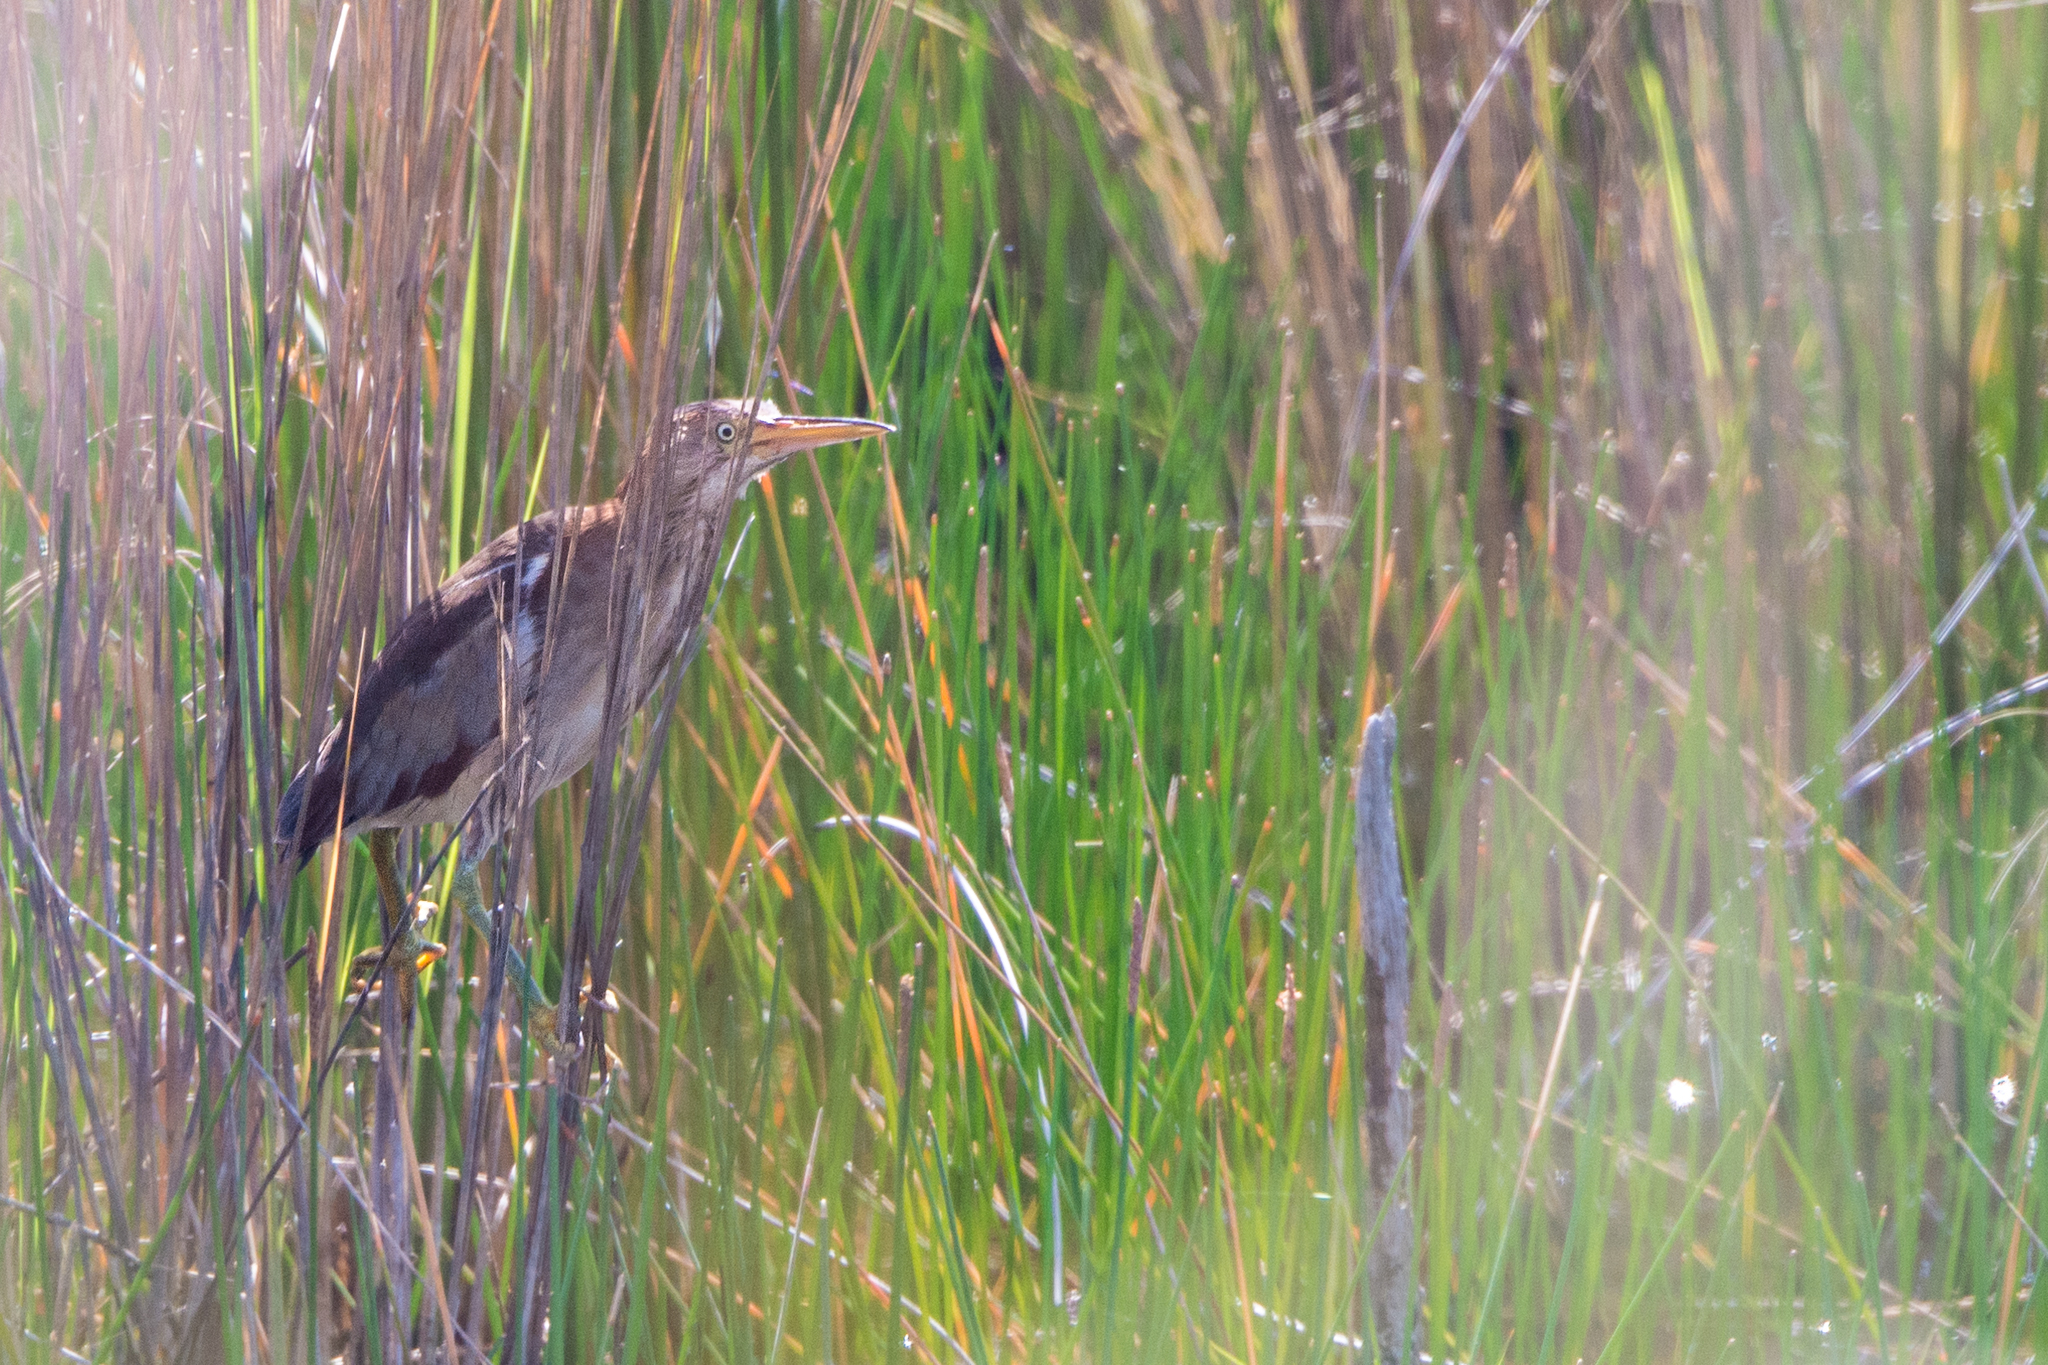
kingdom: Animalia
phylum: Chordata
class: Aves
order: Pelecaniformes
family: Ardeidae
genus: Ixobrychus
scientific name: Ixobrychus exilis
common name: Least bittern
